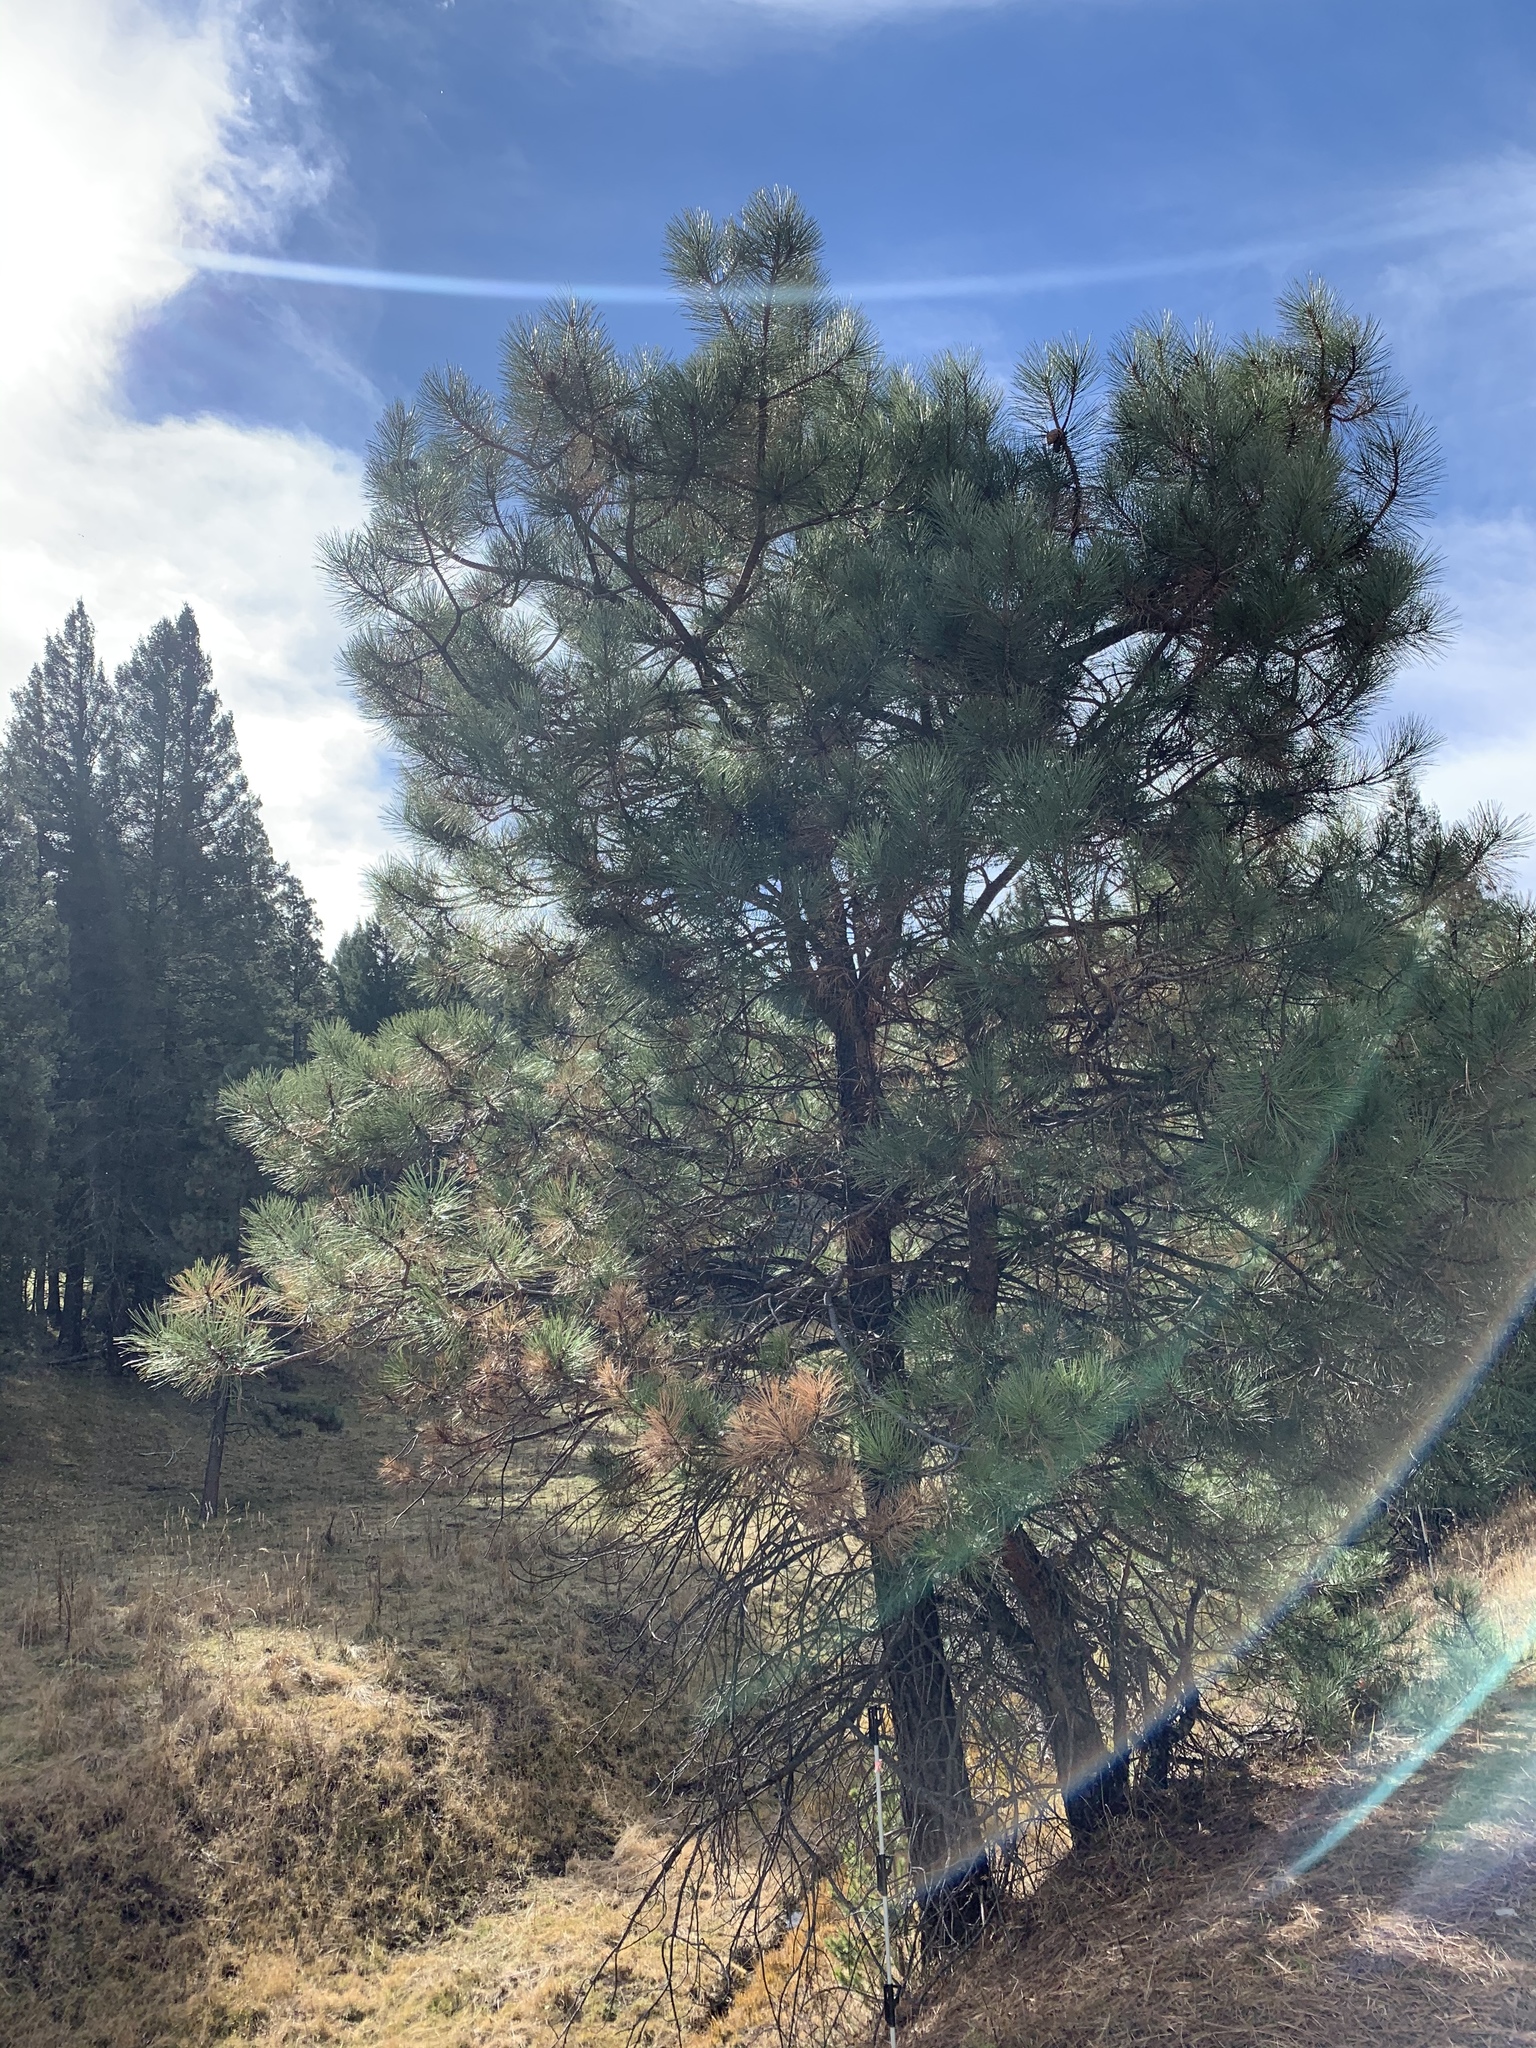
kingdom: Plantae
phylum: Tracheophyta
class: Pinopsida
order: Pinales
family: Pinaceae
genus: Pinus
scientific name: Pinus ponderosa
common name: Western yellow-pine
